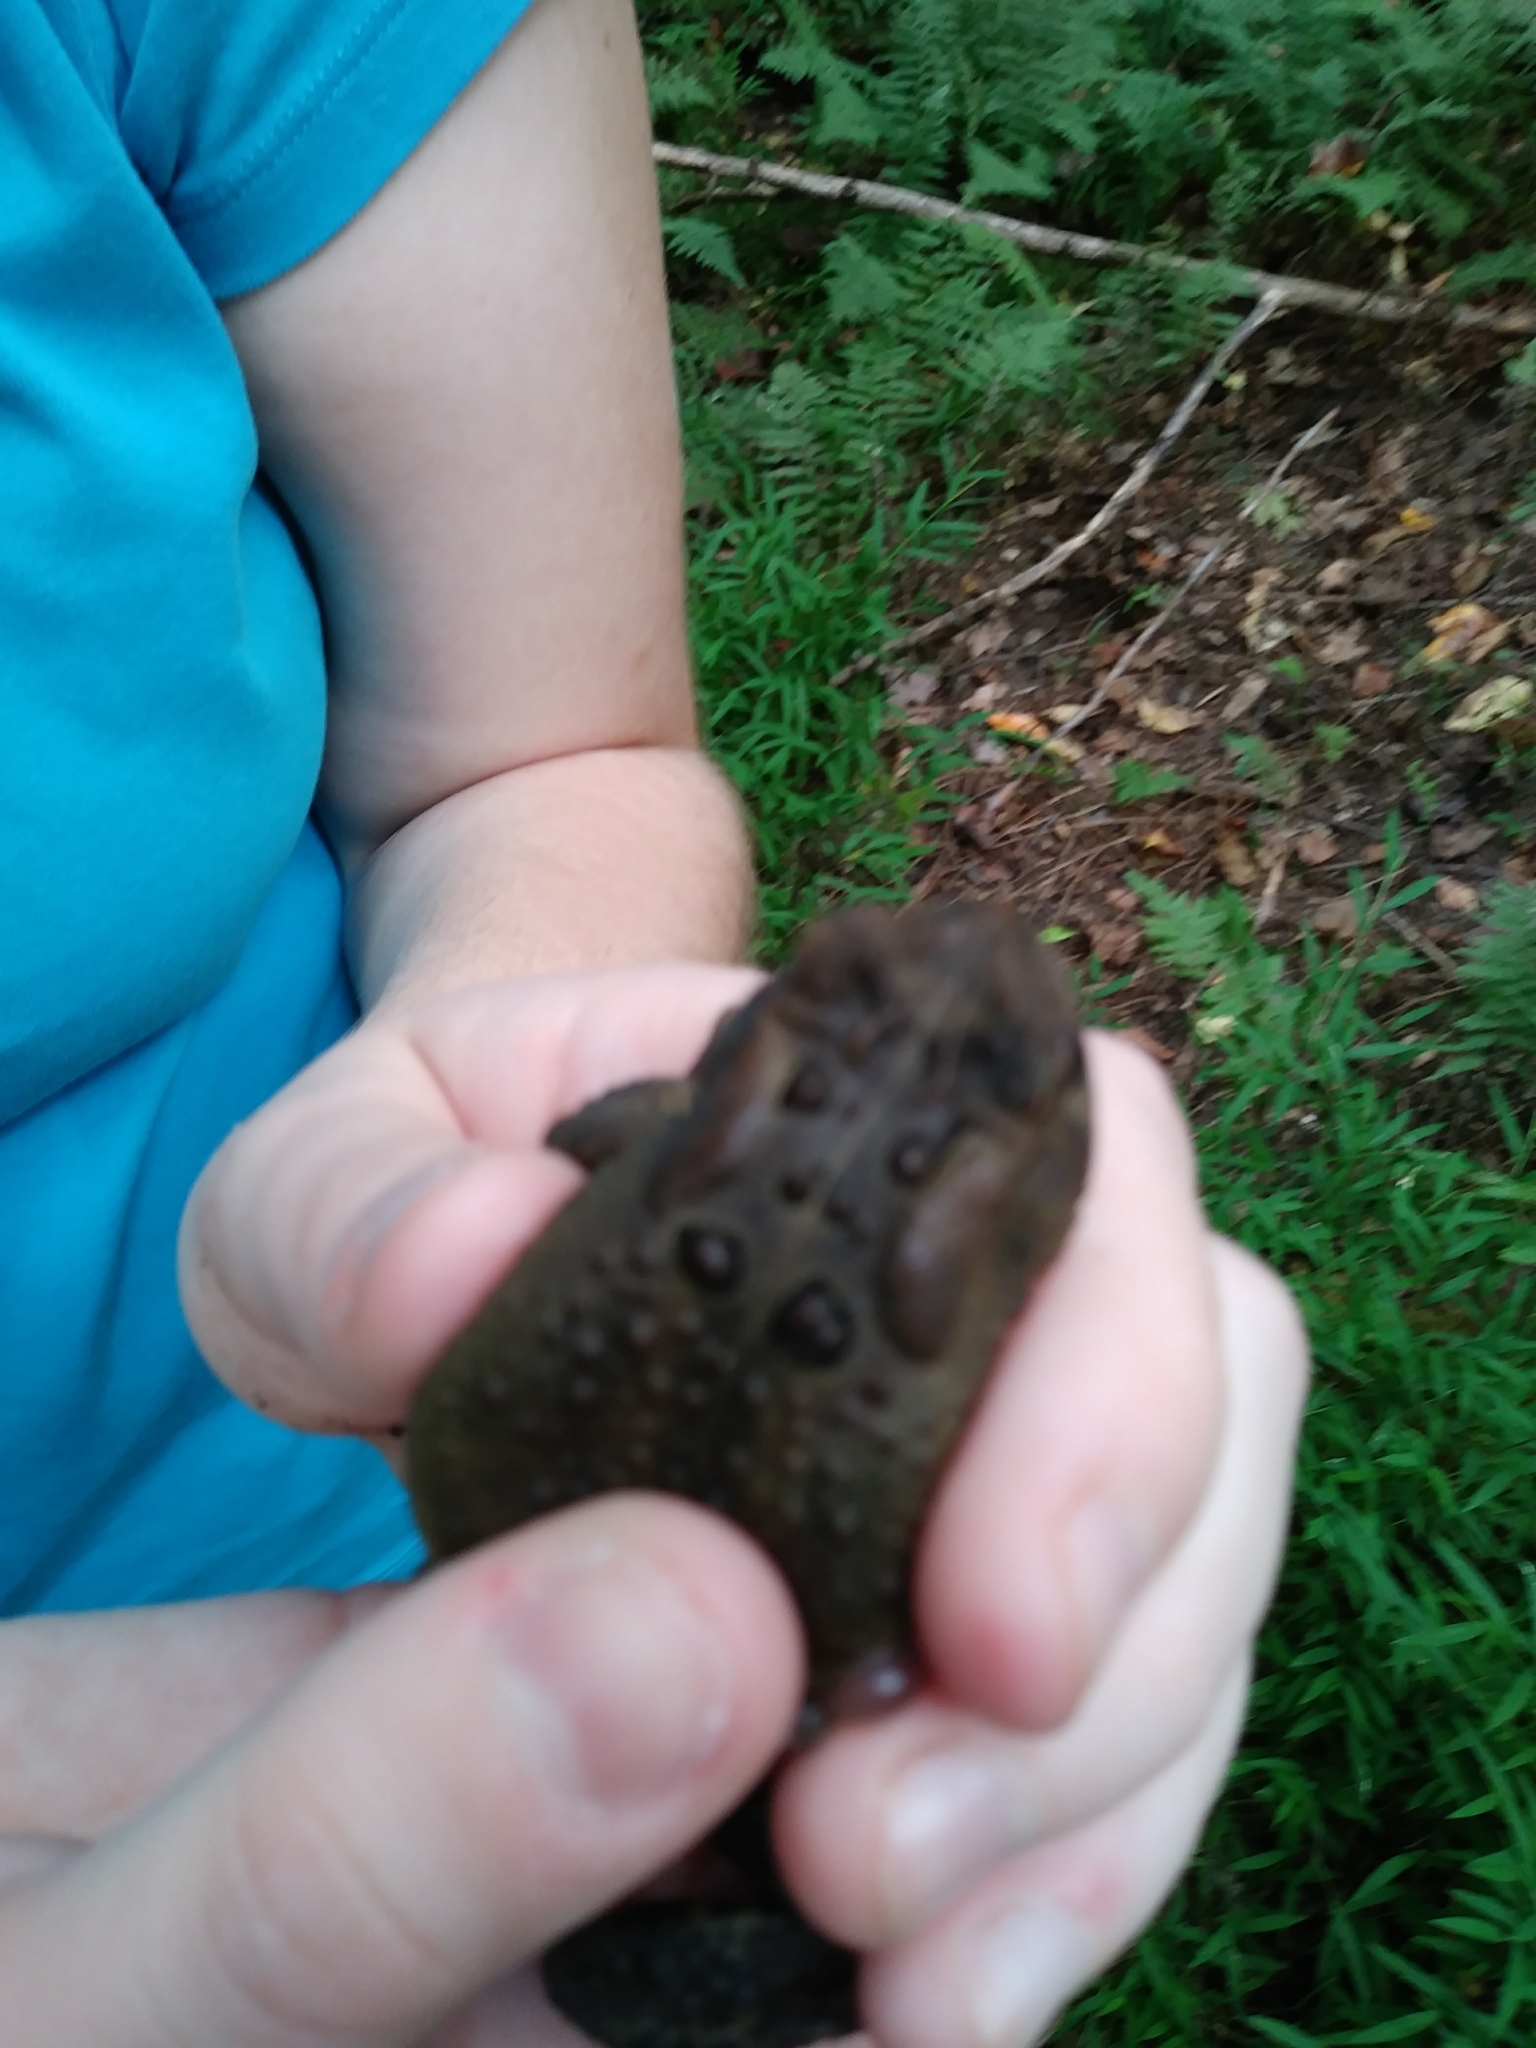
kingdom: Animalia
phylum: Chordata
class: Amphibia
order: Anura
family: Bufonidae
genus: Anaxyrus
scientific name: Anaxyrus americanus
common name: American toad
